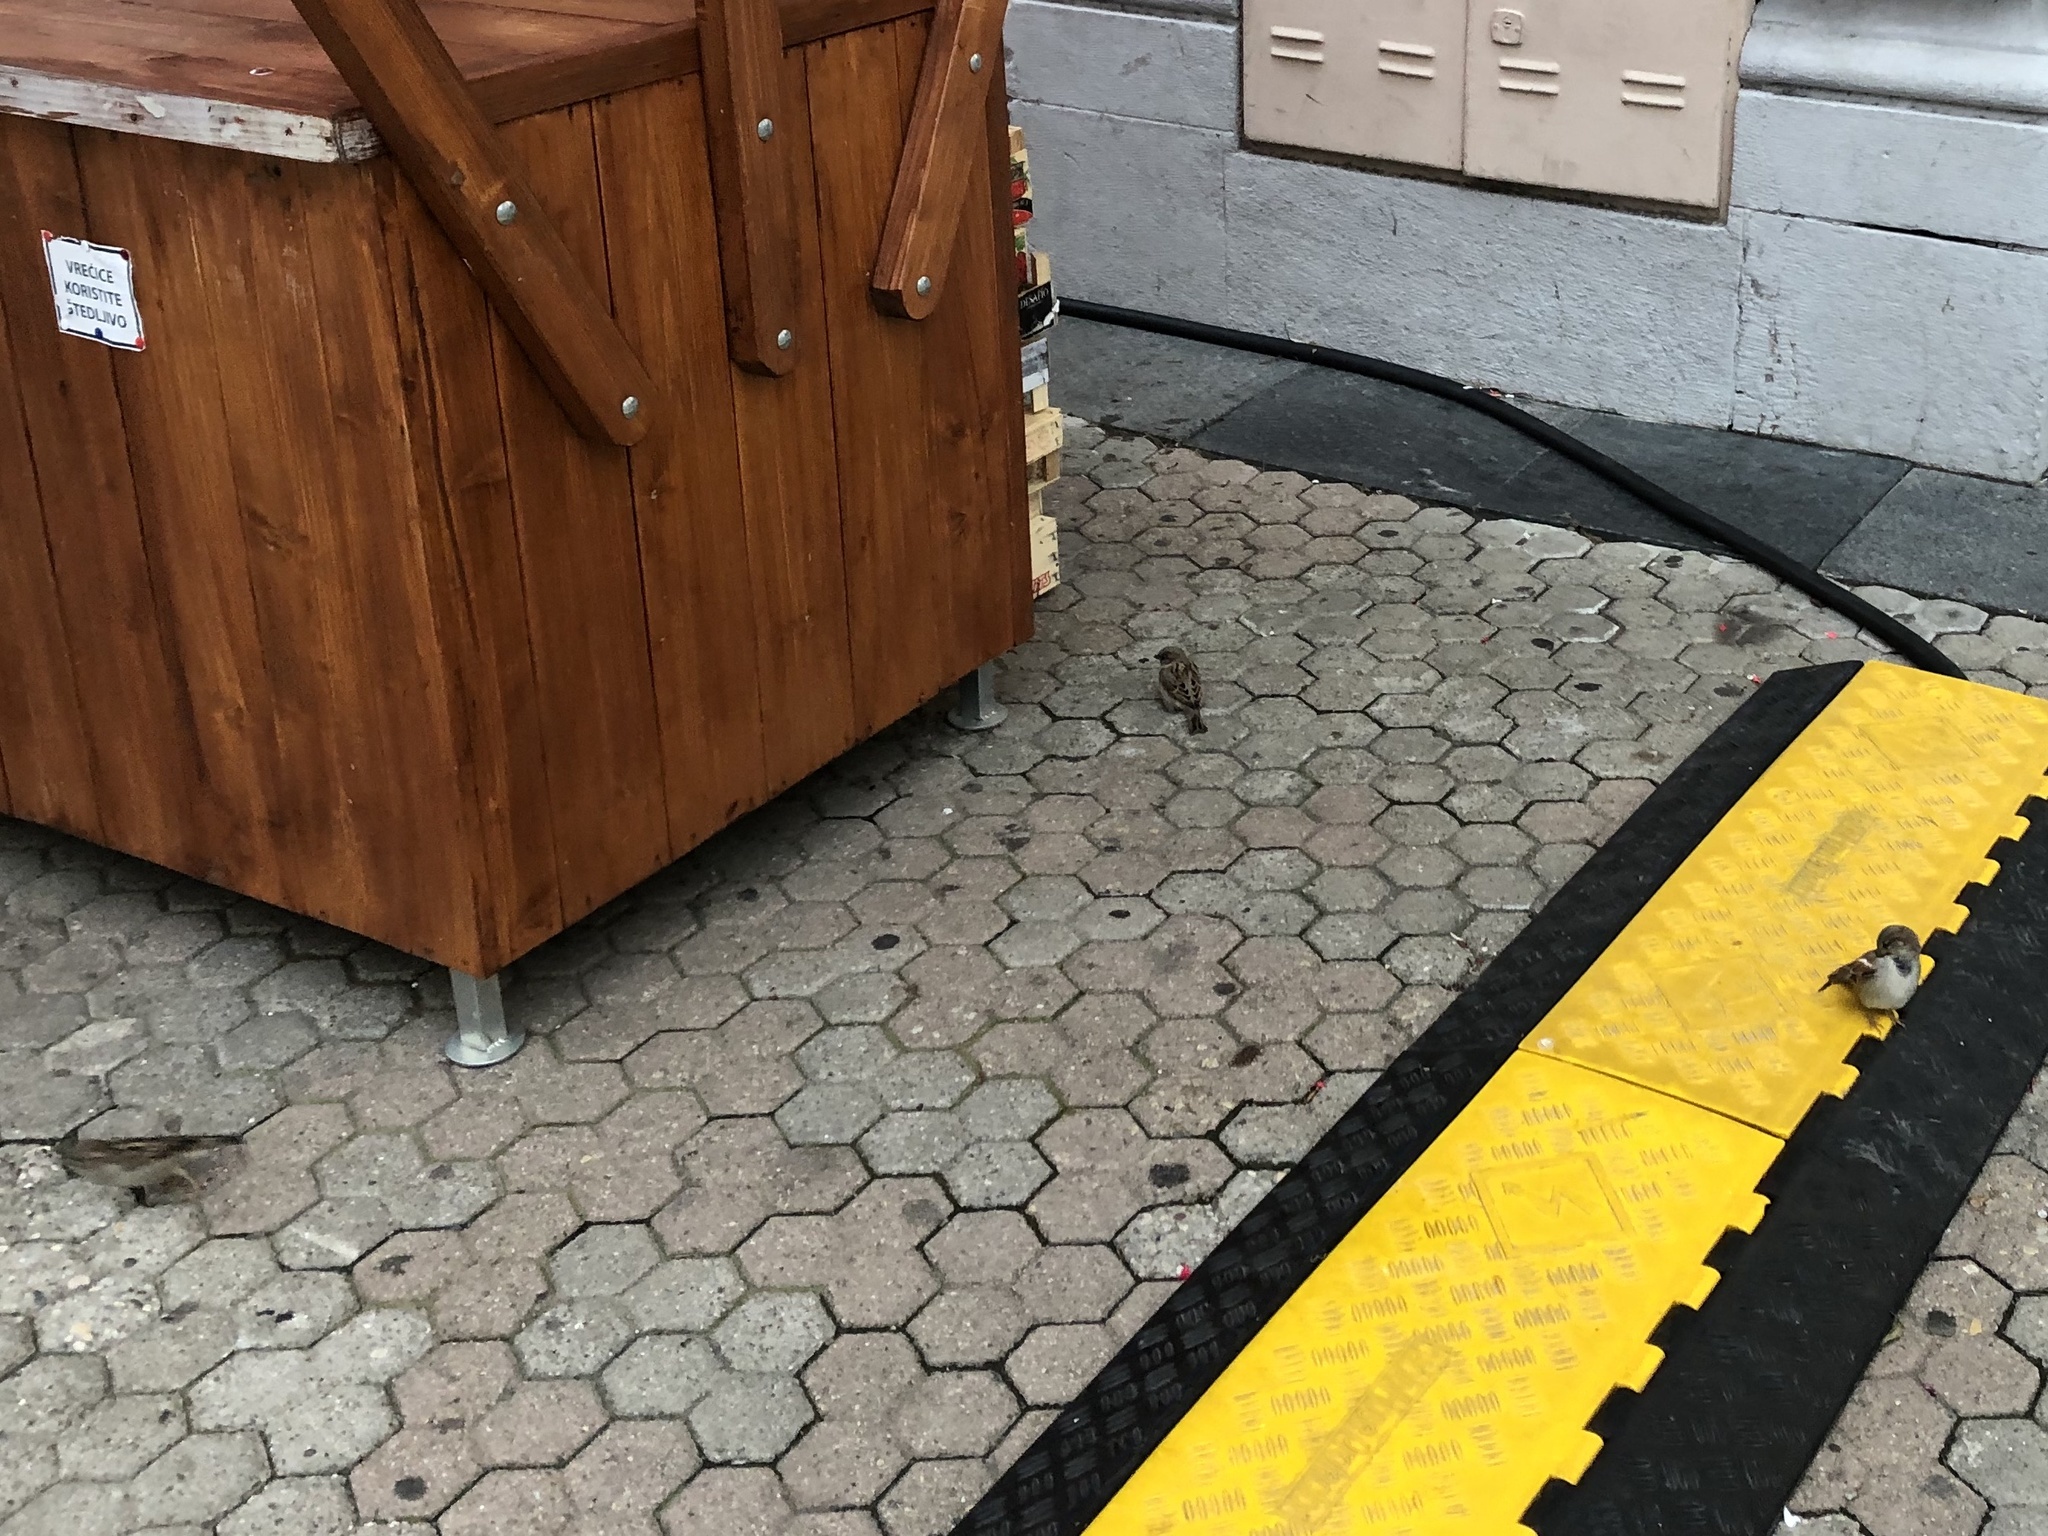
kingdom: Animalia
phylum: Chordata
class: Aves
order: Passeriformes
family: Passeridae
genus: Passer
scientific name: Passer domesticus
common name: House sparrow
